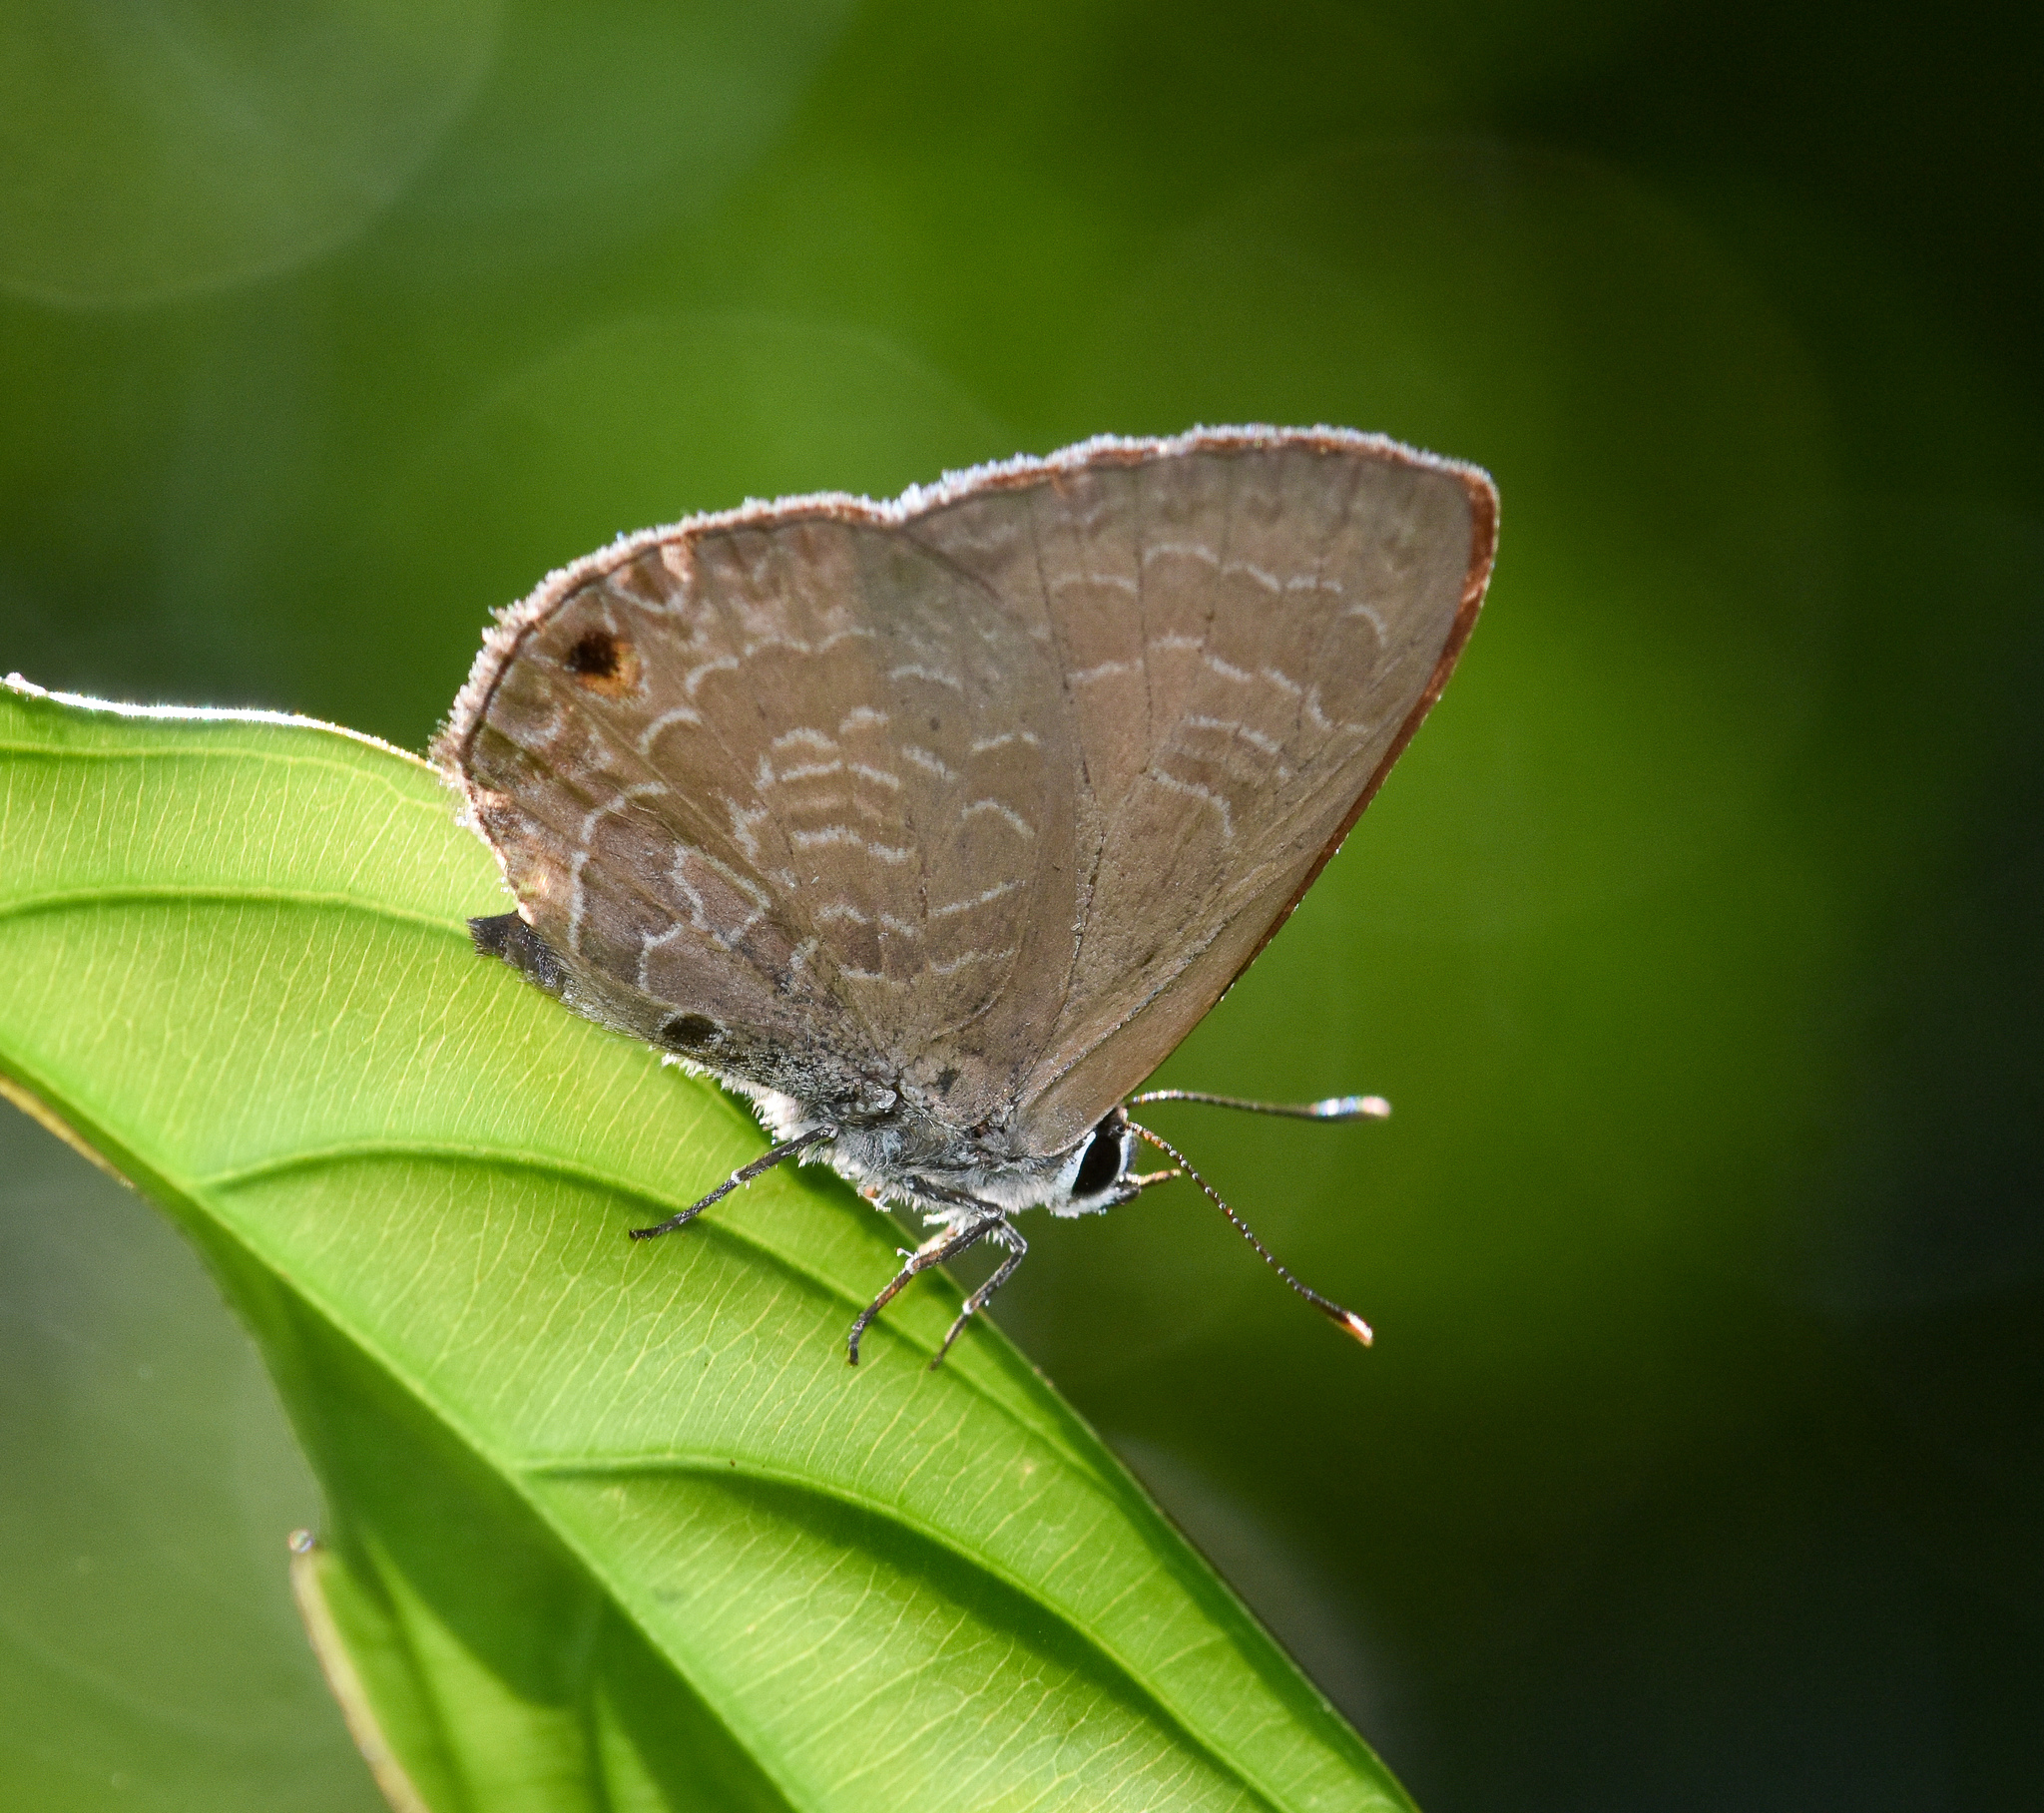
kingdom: Animalia
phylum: Arthropoda
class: Insecta
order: Lepidoptera
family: Lycaenidae
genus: Anthene
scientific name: Anthene emolus
